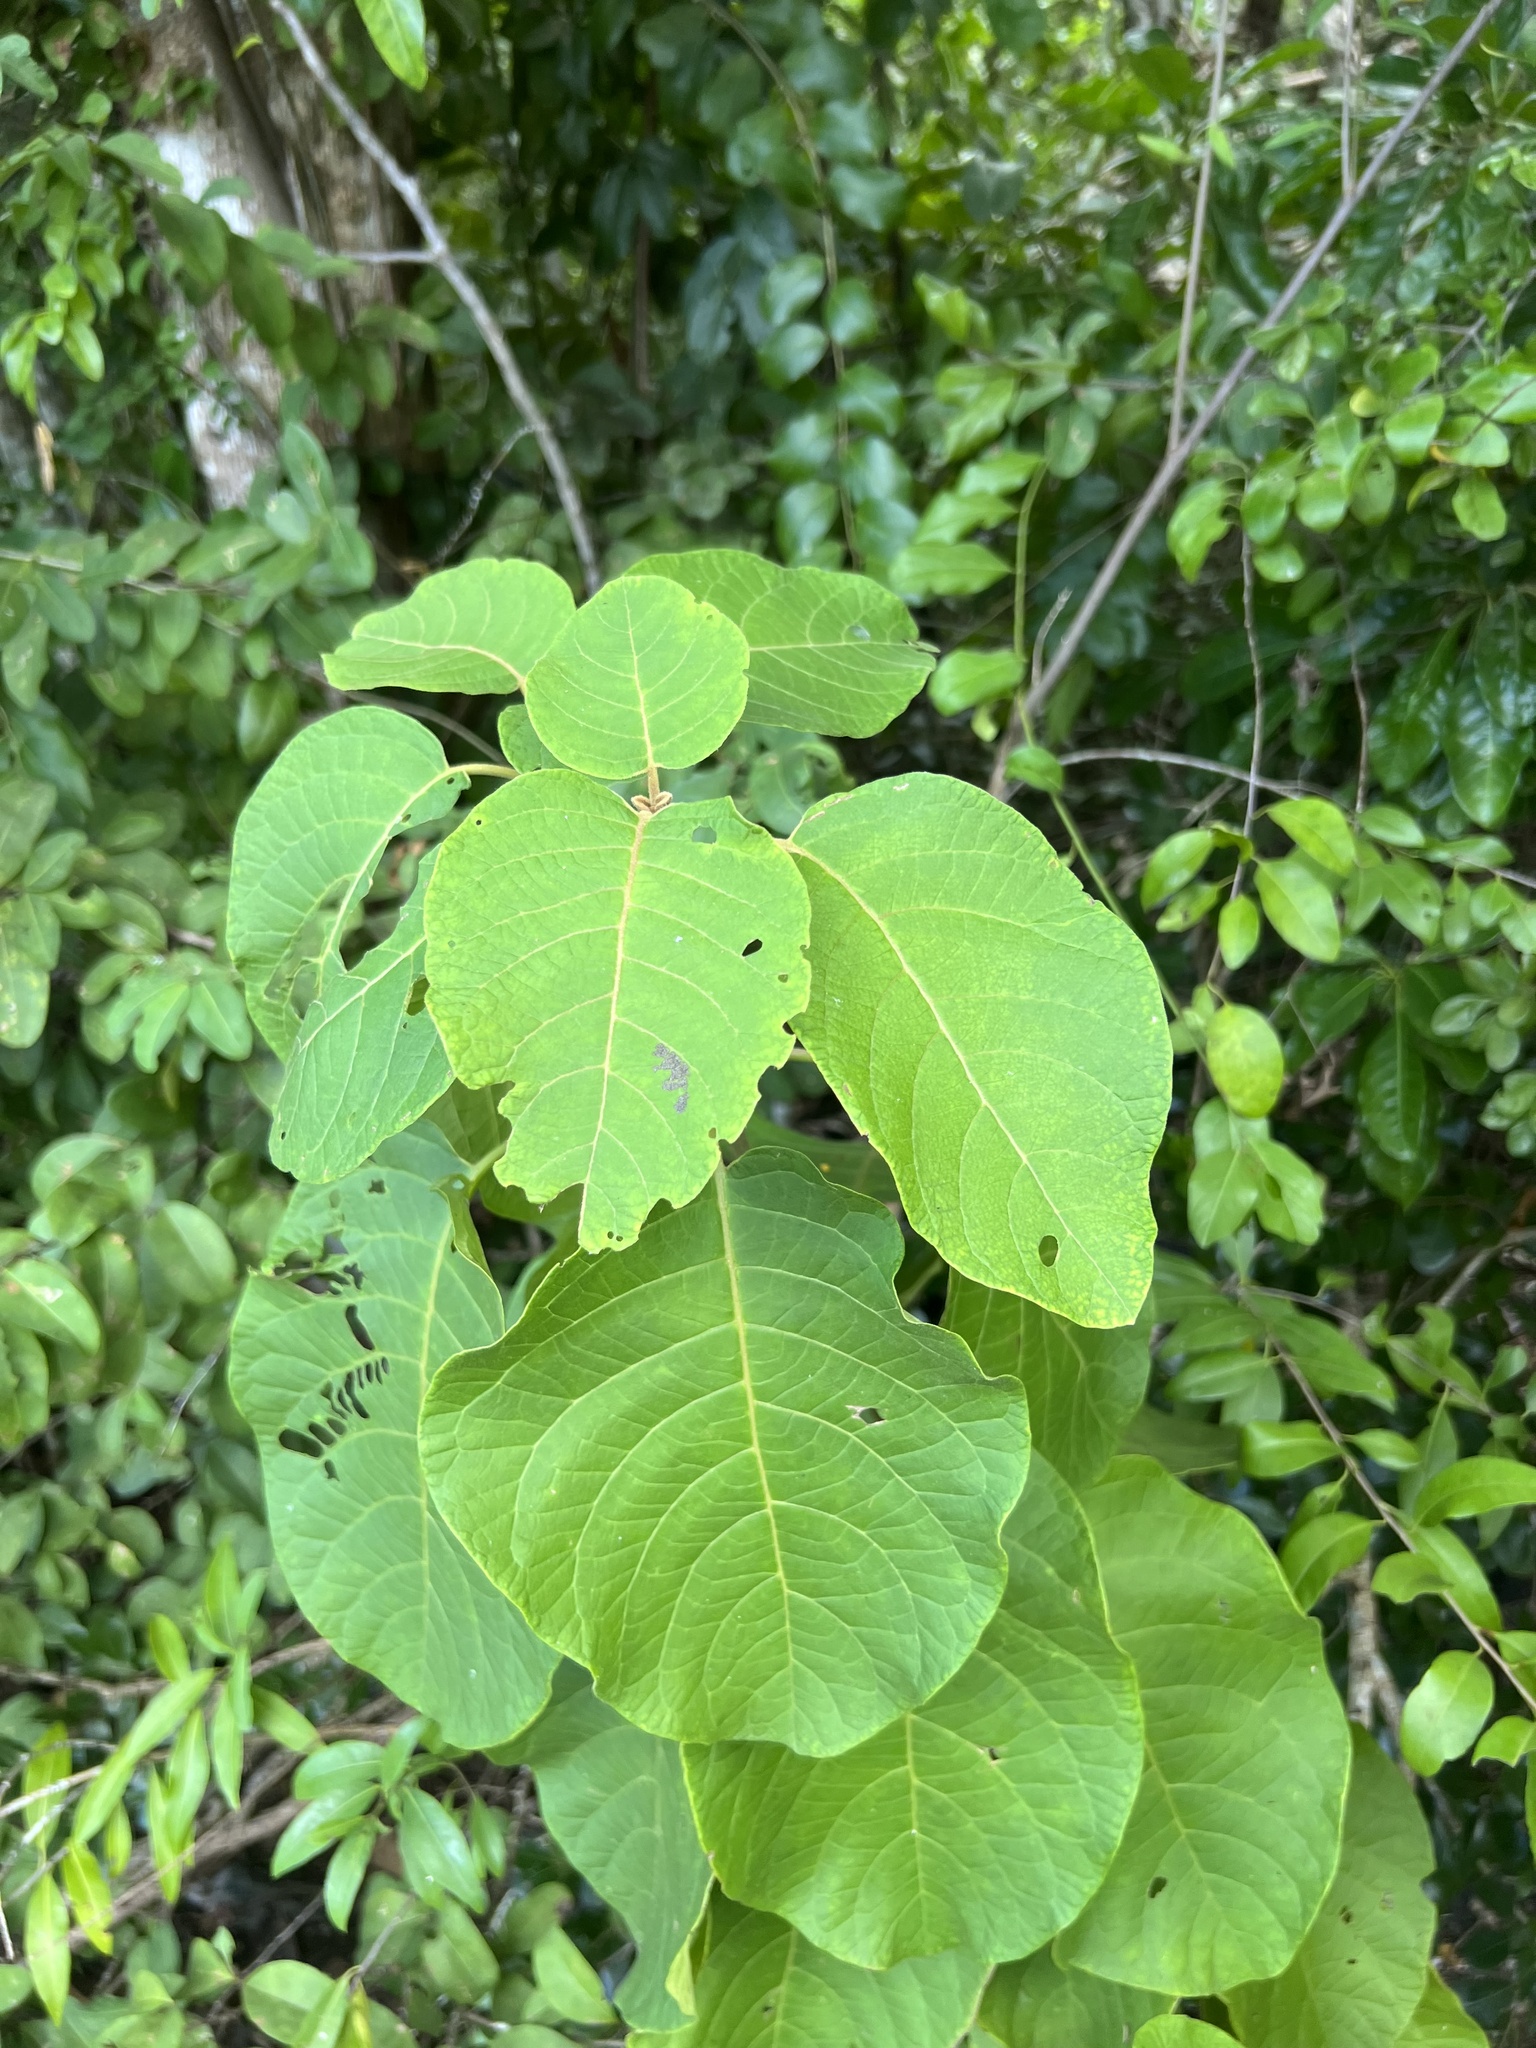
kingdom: Plantae
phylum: Tracheophyta
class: Magnoliopsida
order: Caryophyllales
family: Nyctaginaceae
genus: Pisonia
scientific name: Pisonia margaretiae
